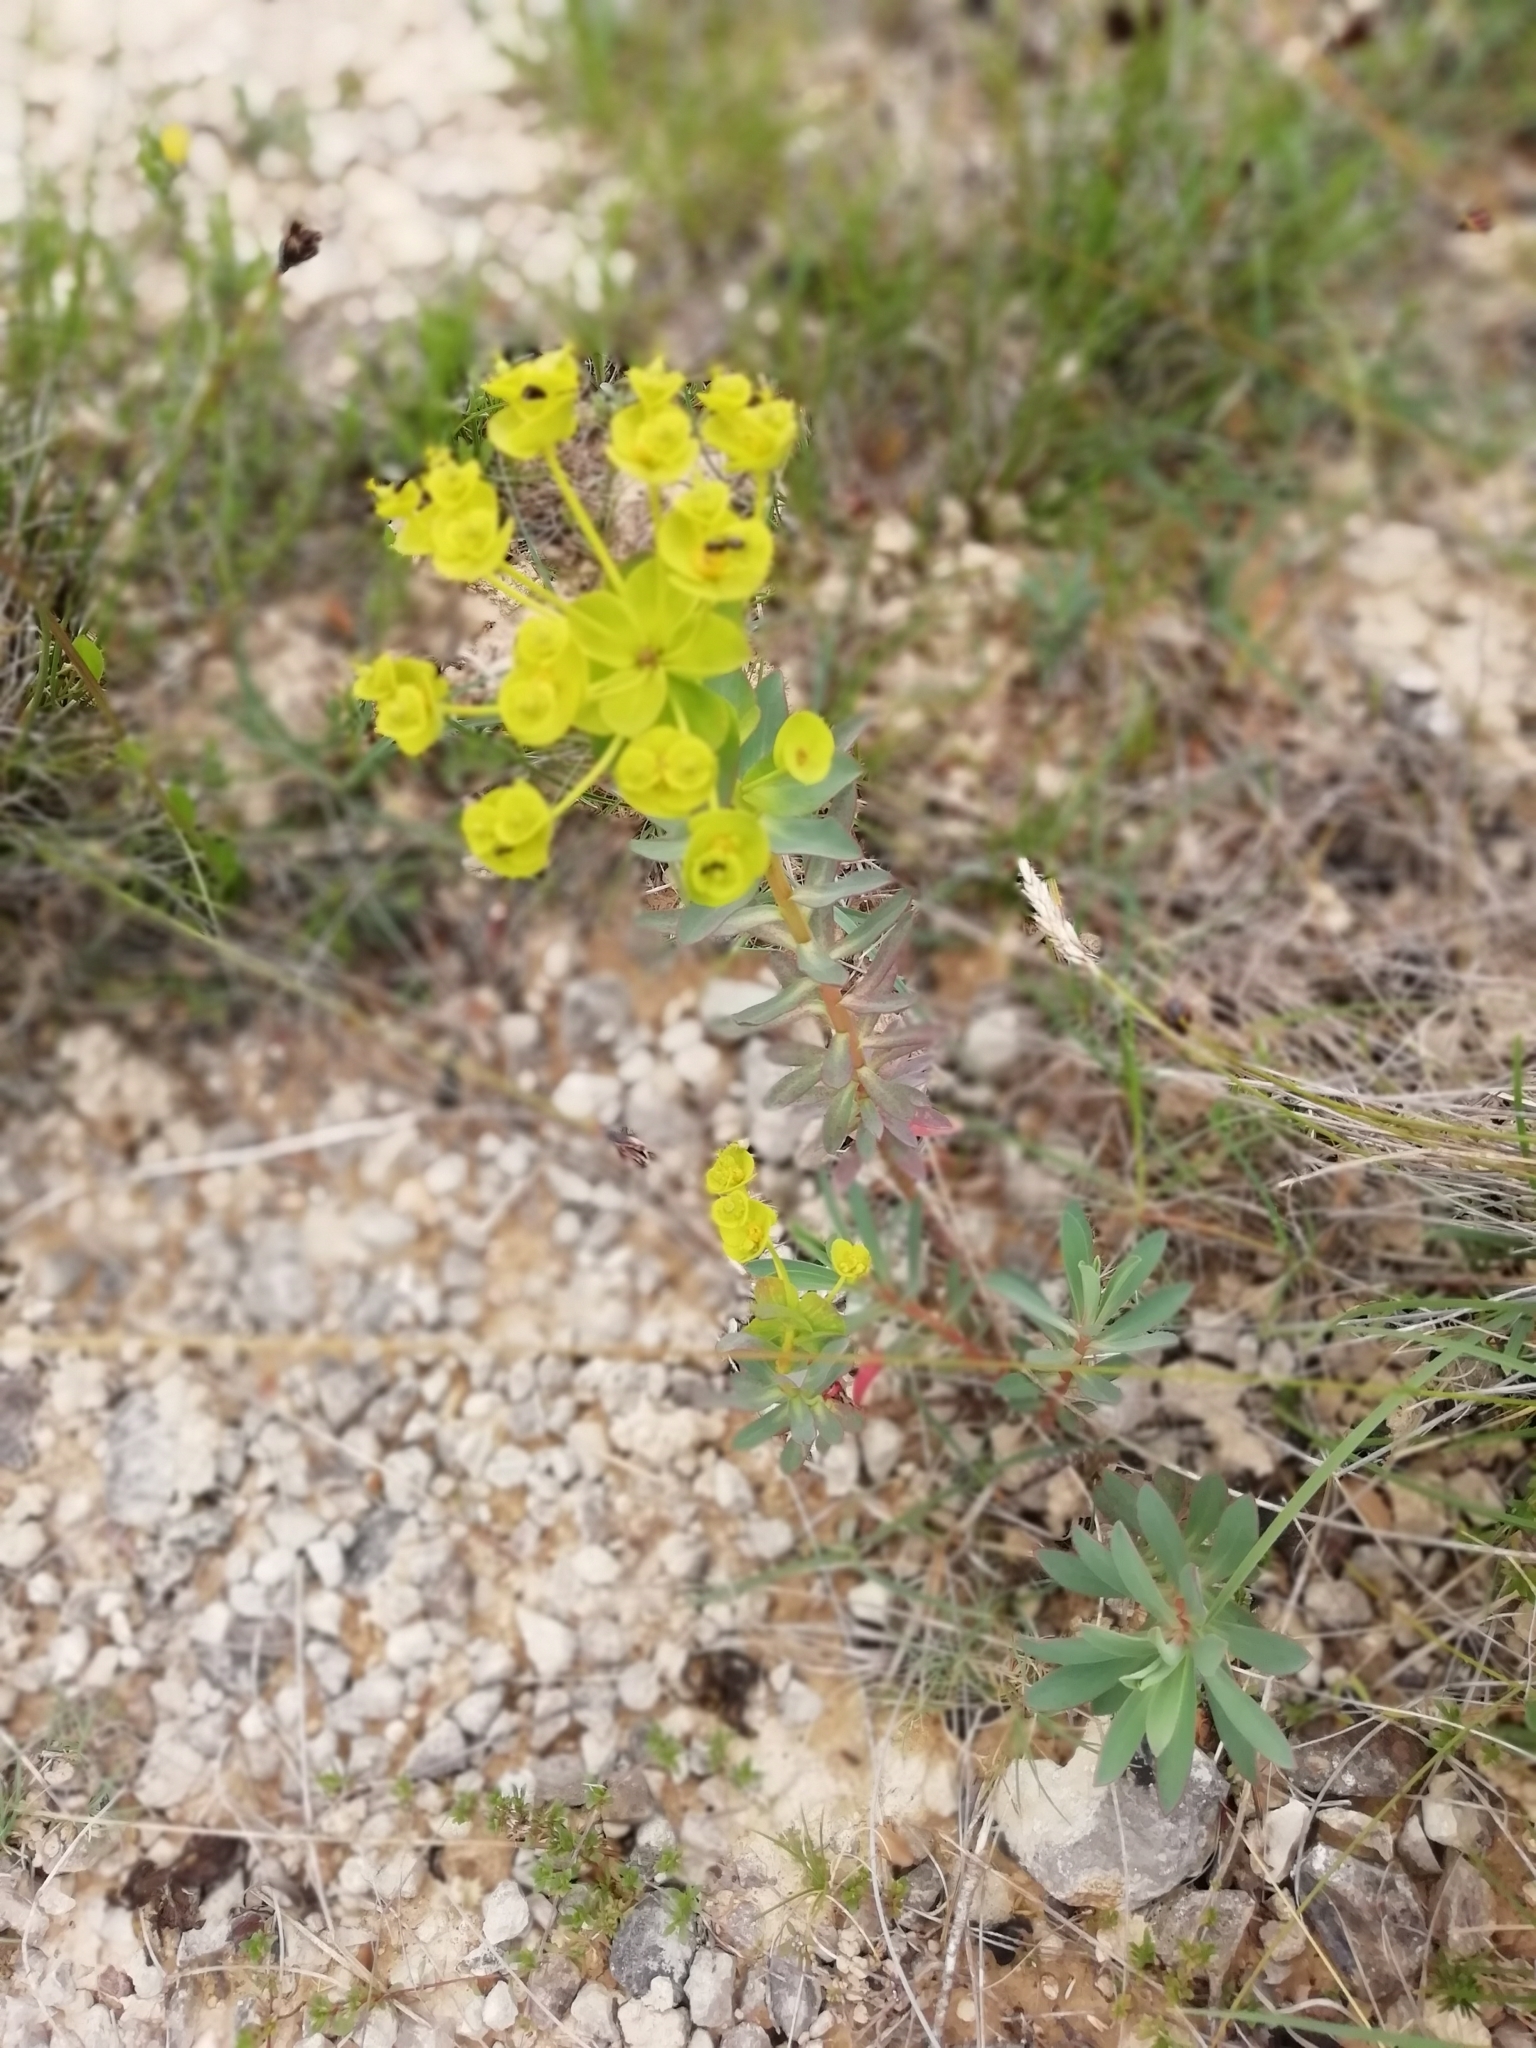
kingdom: Plantae
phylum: Tracheophyta
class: Magnoliopsida
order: Malpighiales
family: Euphorbiaceae
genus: Euphorbia
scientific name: Euphorbia nicaeensis
